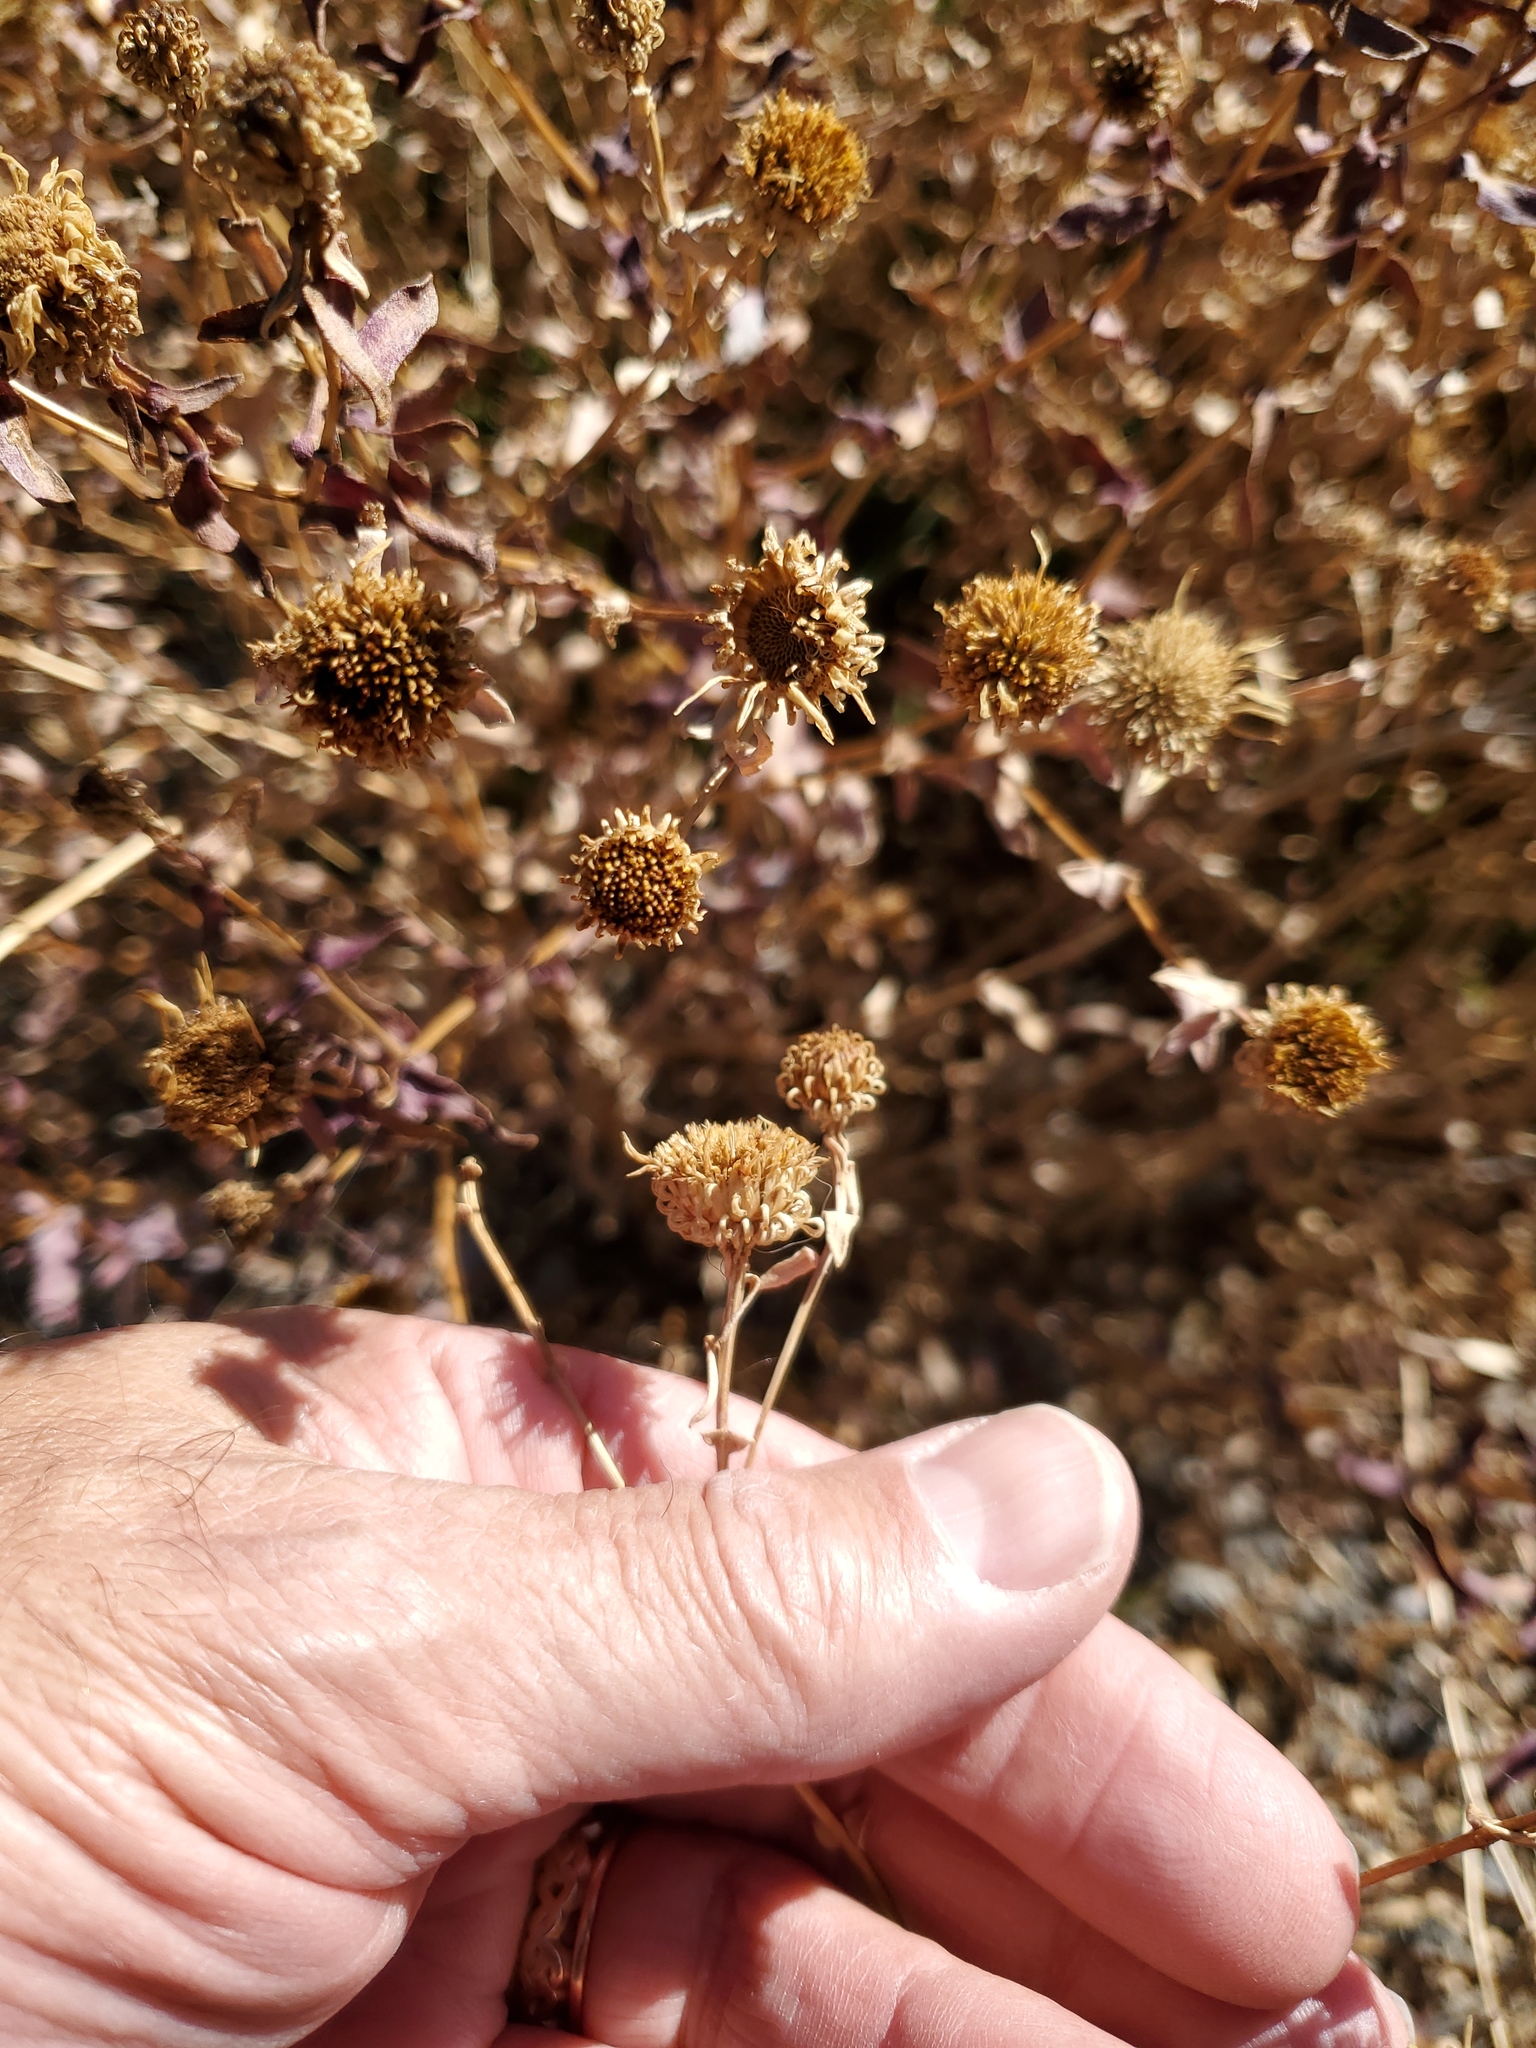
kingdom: Plantae
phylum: Tracheophyta
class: Magnoliopsida
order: Asterales
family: Asteraceae
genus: Grindelia
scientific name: Grindelia squarrosa
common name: Curly-cup gumweed
